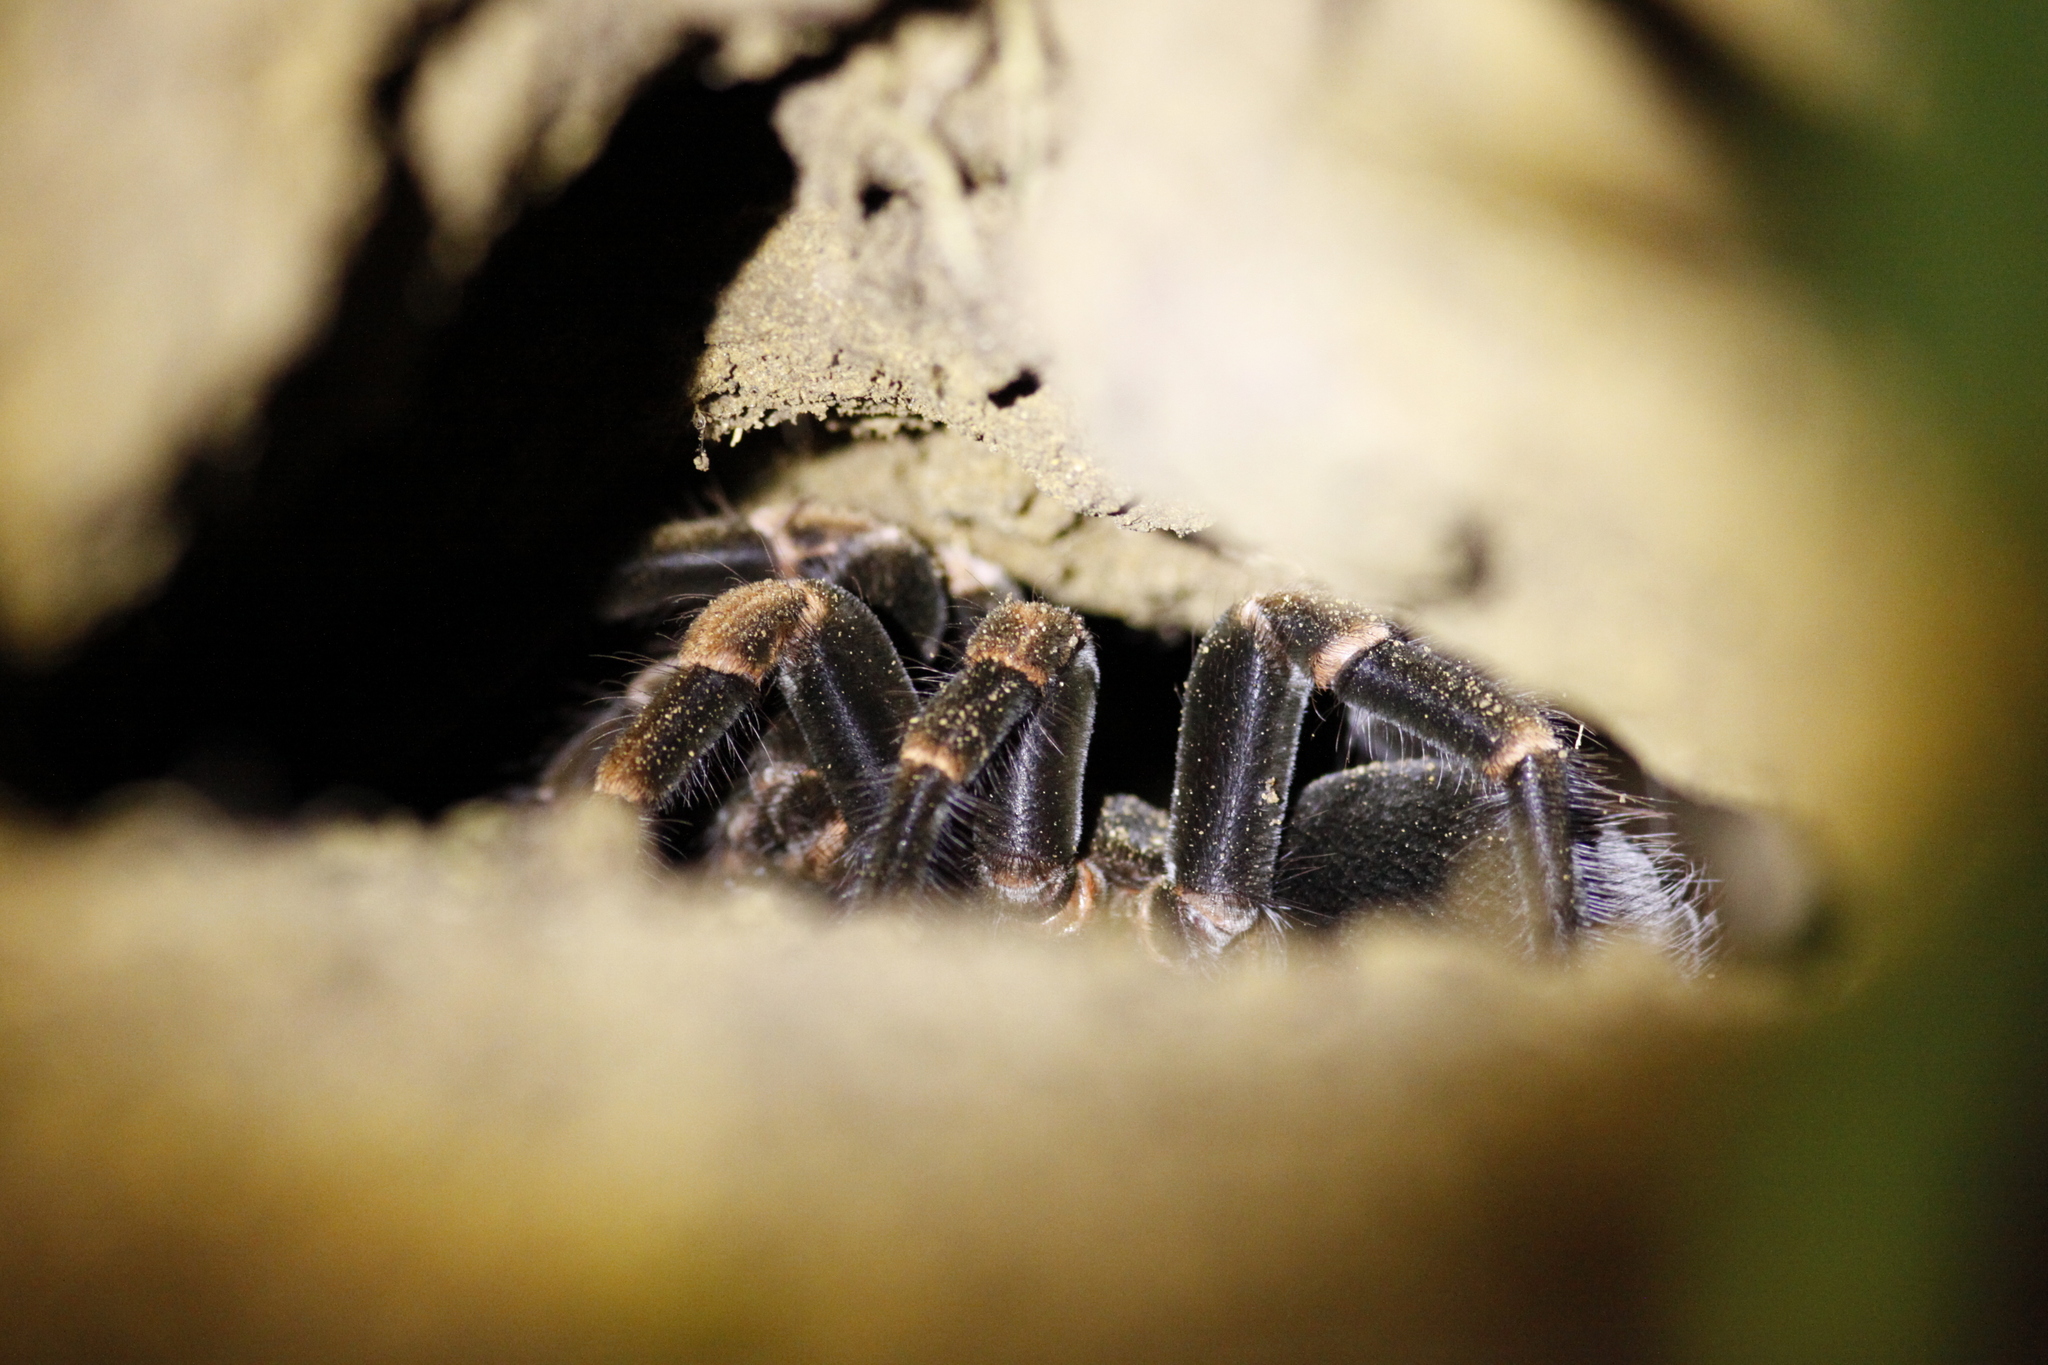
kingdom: Animalia
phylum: Arthropoda
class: Arachnida
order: Araneae
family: Theraphosidae
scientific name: Theraphosidae
